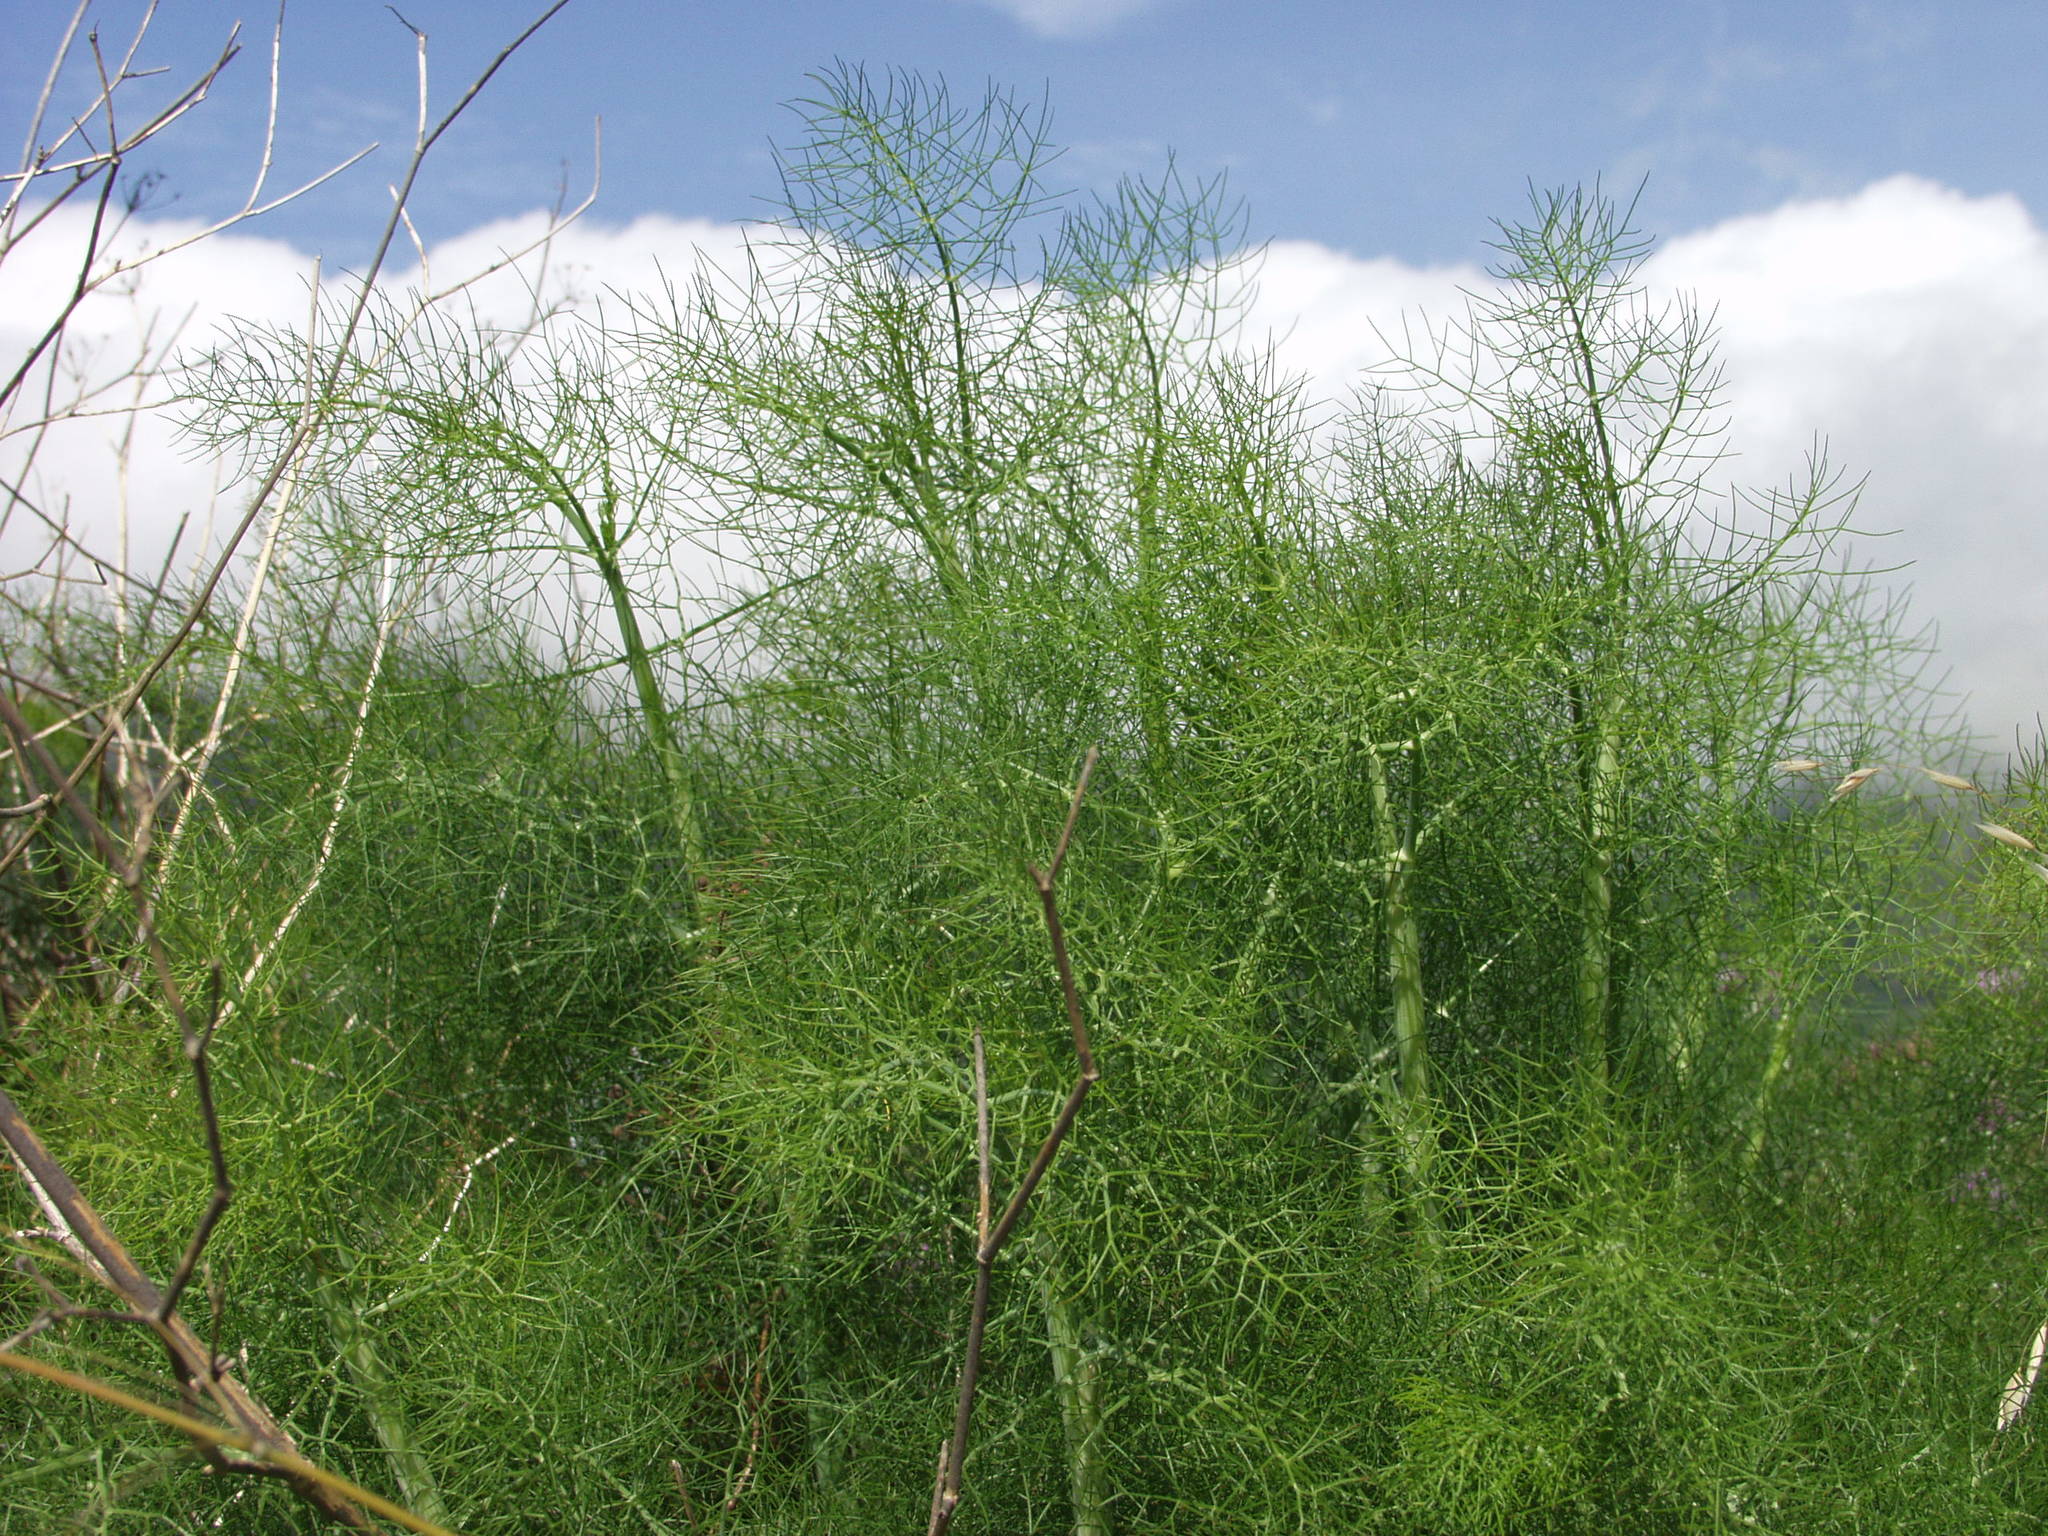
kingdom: Plantae
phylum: Tracheophyta
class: Magnoliopsida
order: Apiales
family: Apiaceae
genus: Foeniculum
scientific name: Foeniculum vulgare
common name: Fennel
